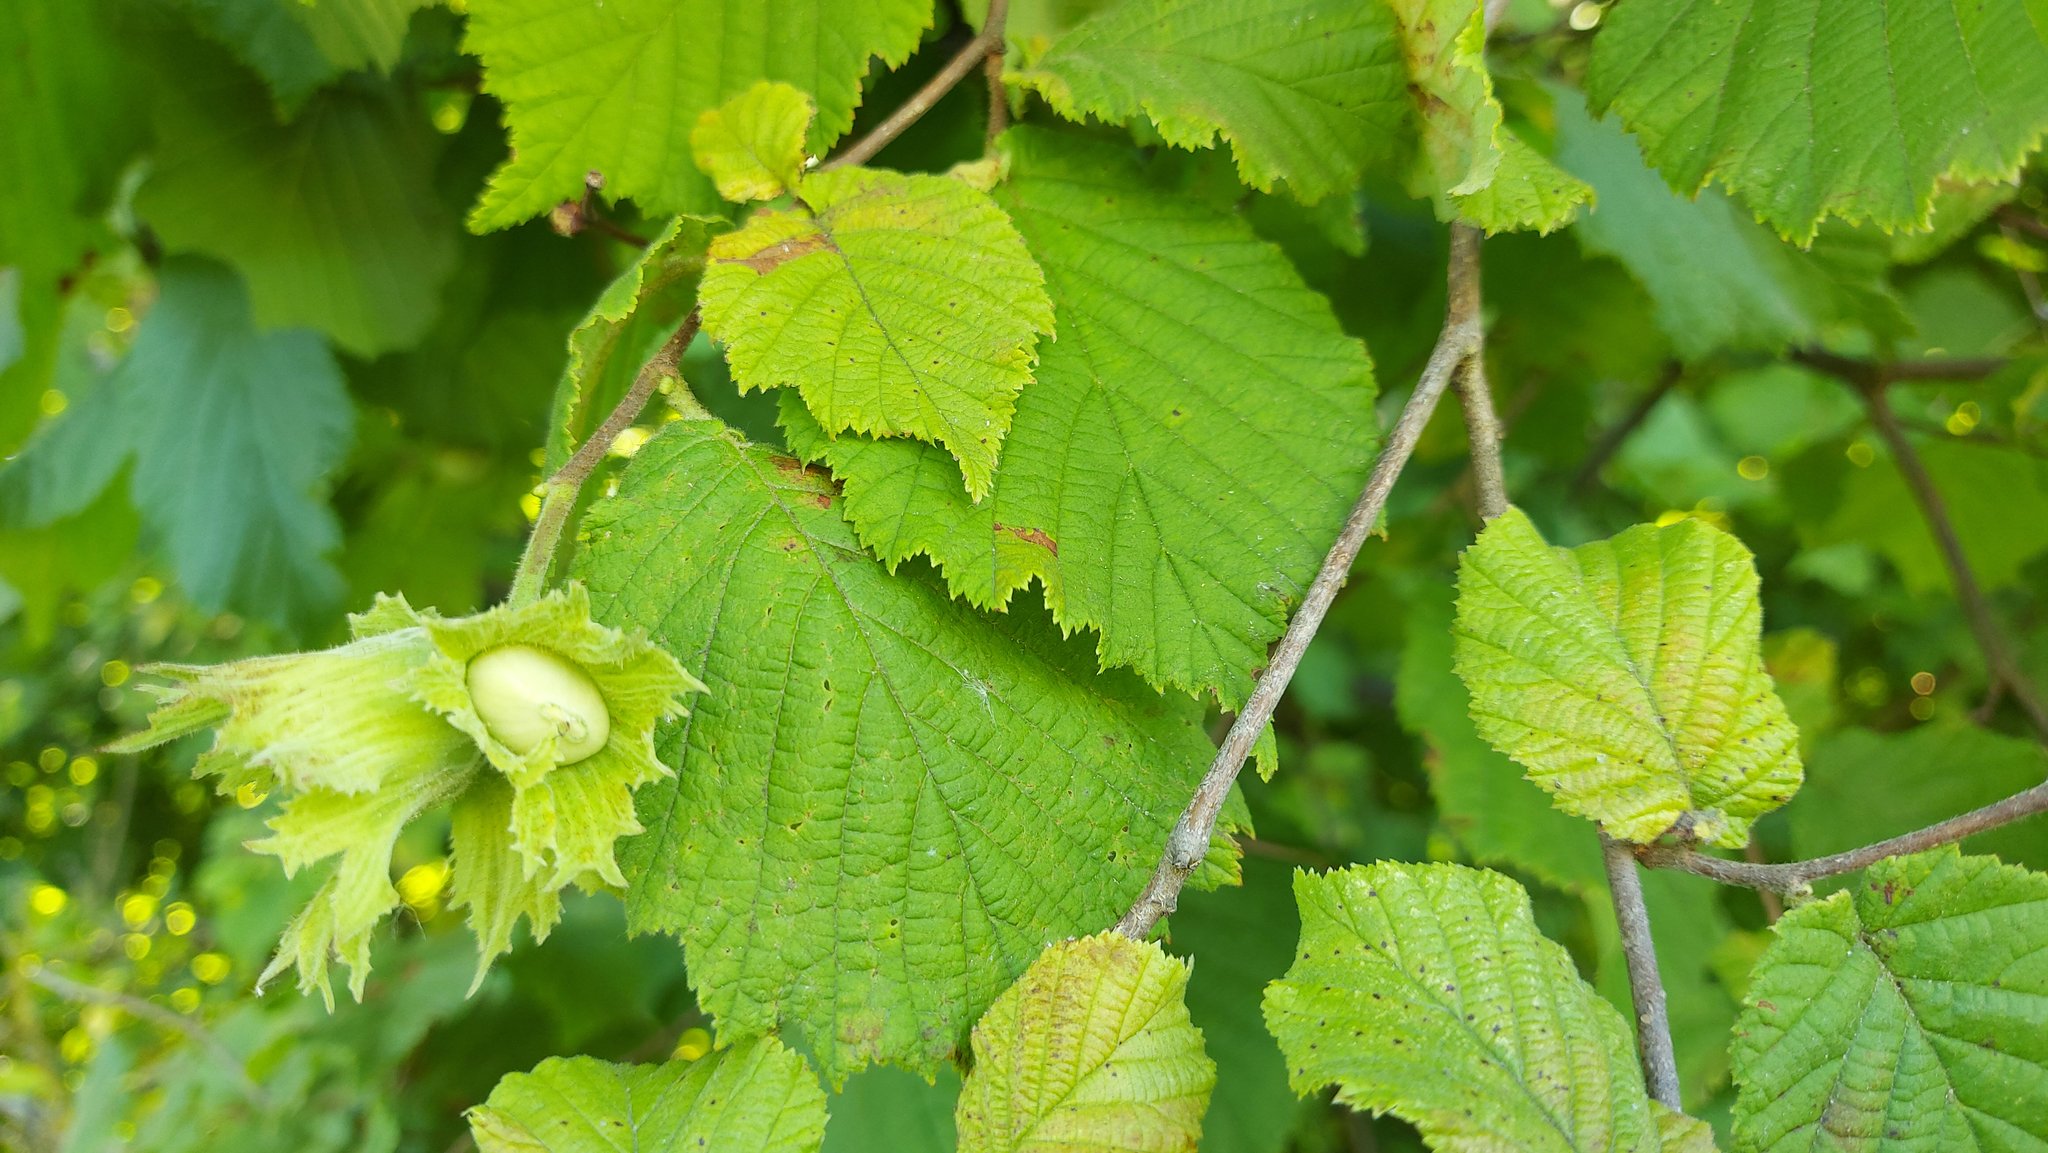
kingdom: Plantae
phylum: Tracheophyta
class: Magnoliopsida
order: Fagales
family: Betulaceae
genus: Corylus
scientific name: Corylus avellana
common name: European hazel
